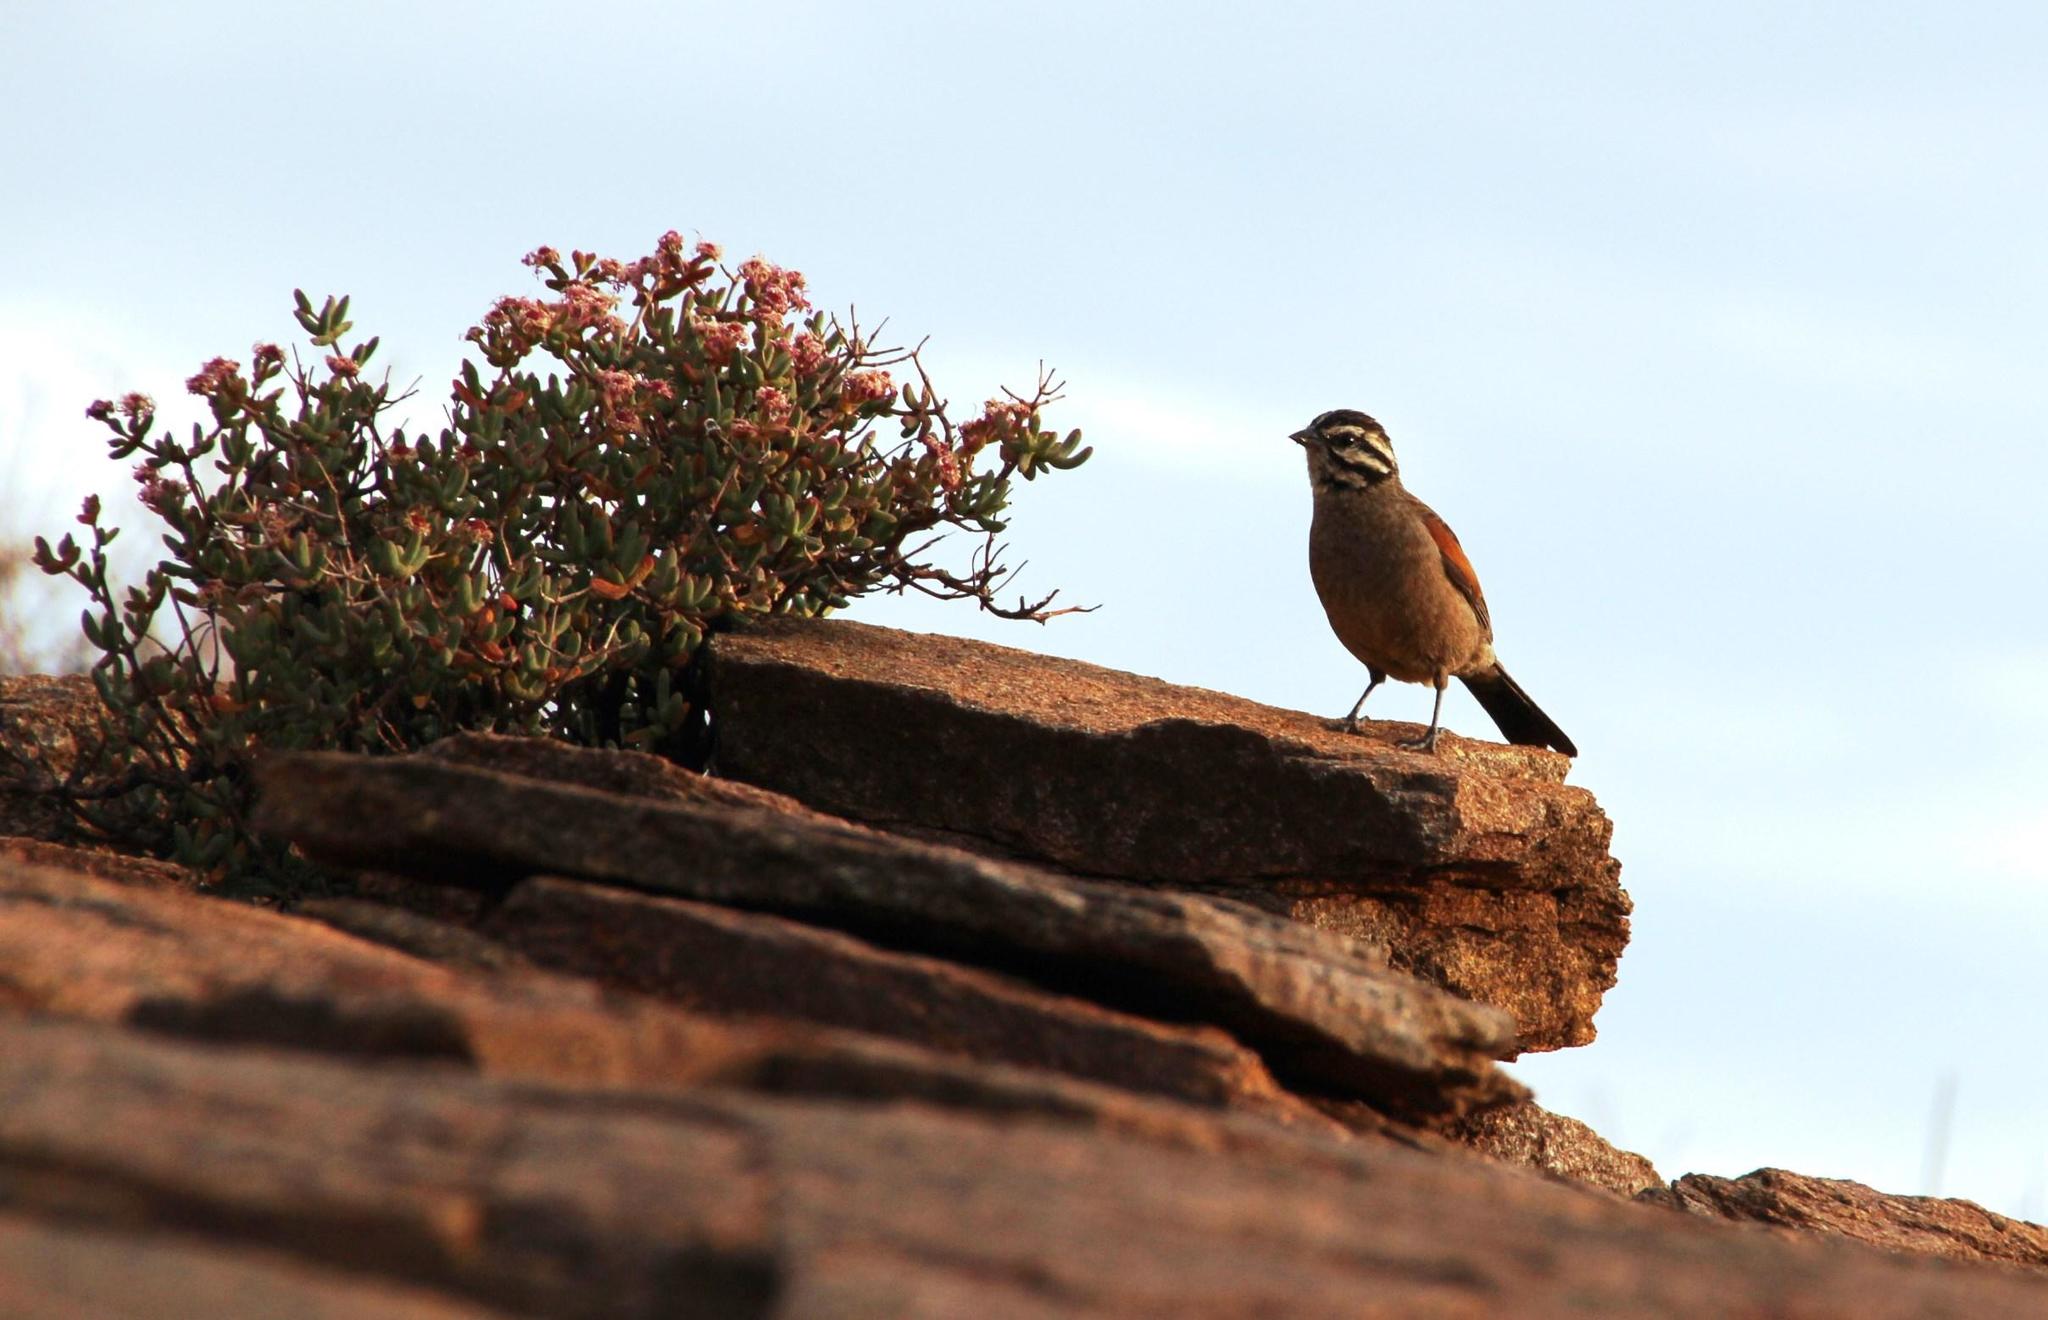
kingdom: Animalia
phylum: Chordata
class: Aves
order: Passeriformes
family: Emberizidae
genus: Emberiza
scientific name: Emberiza capensis
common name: Cape bunting
